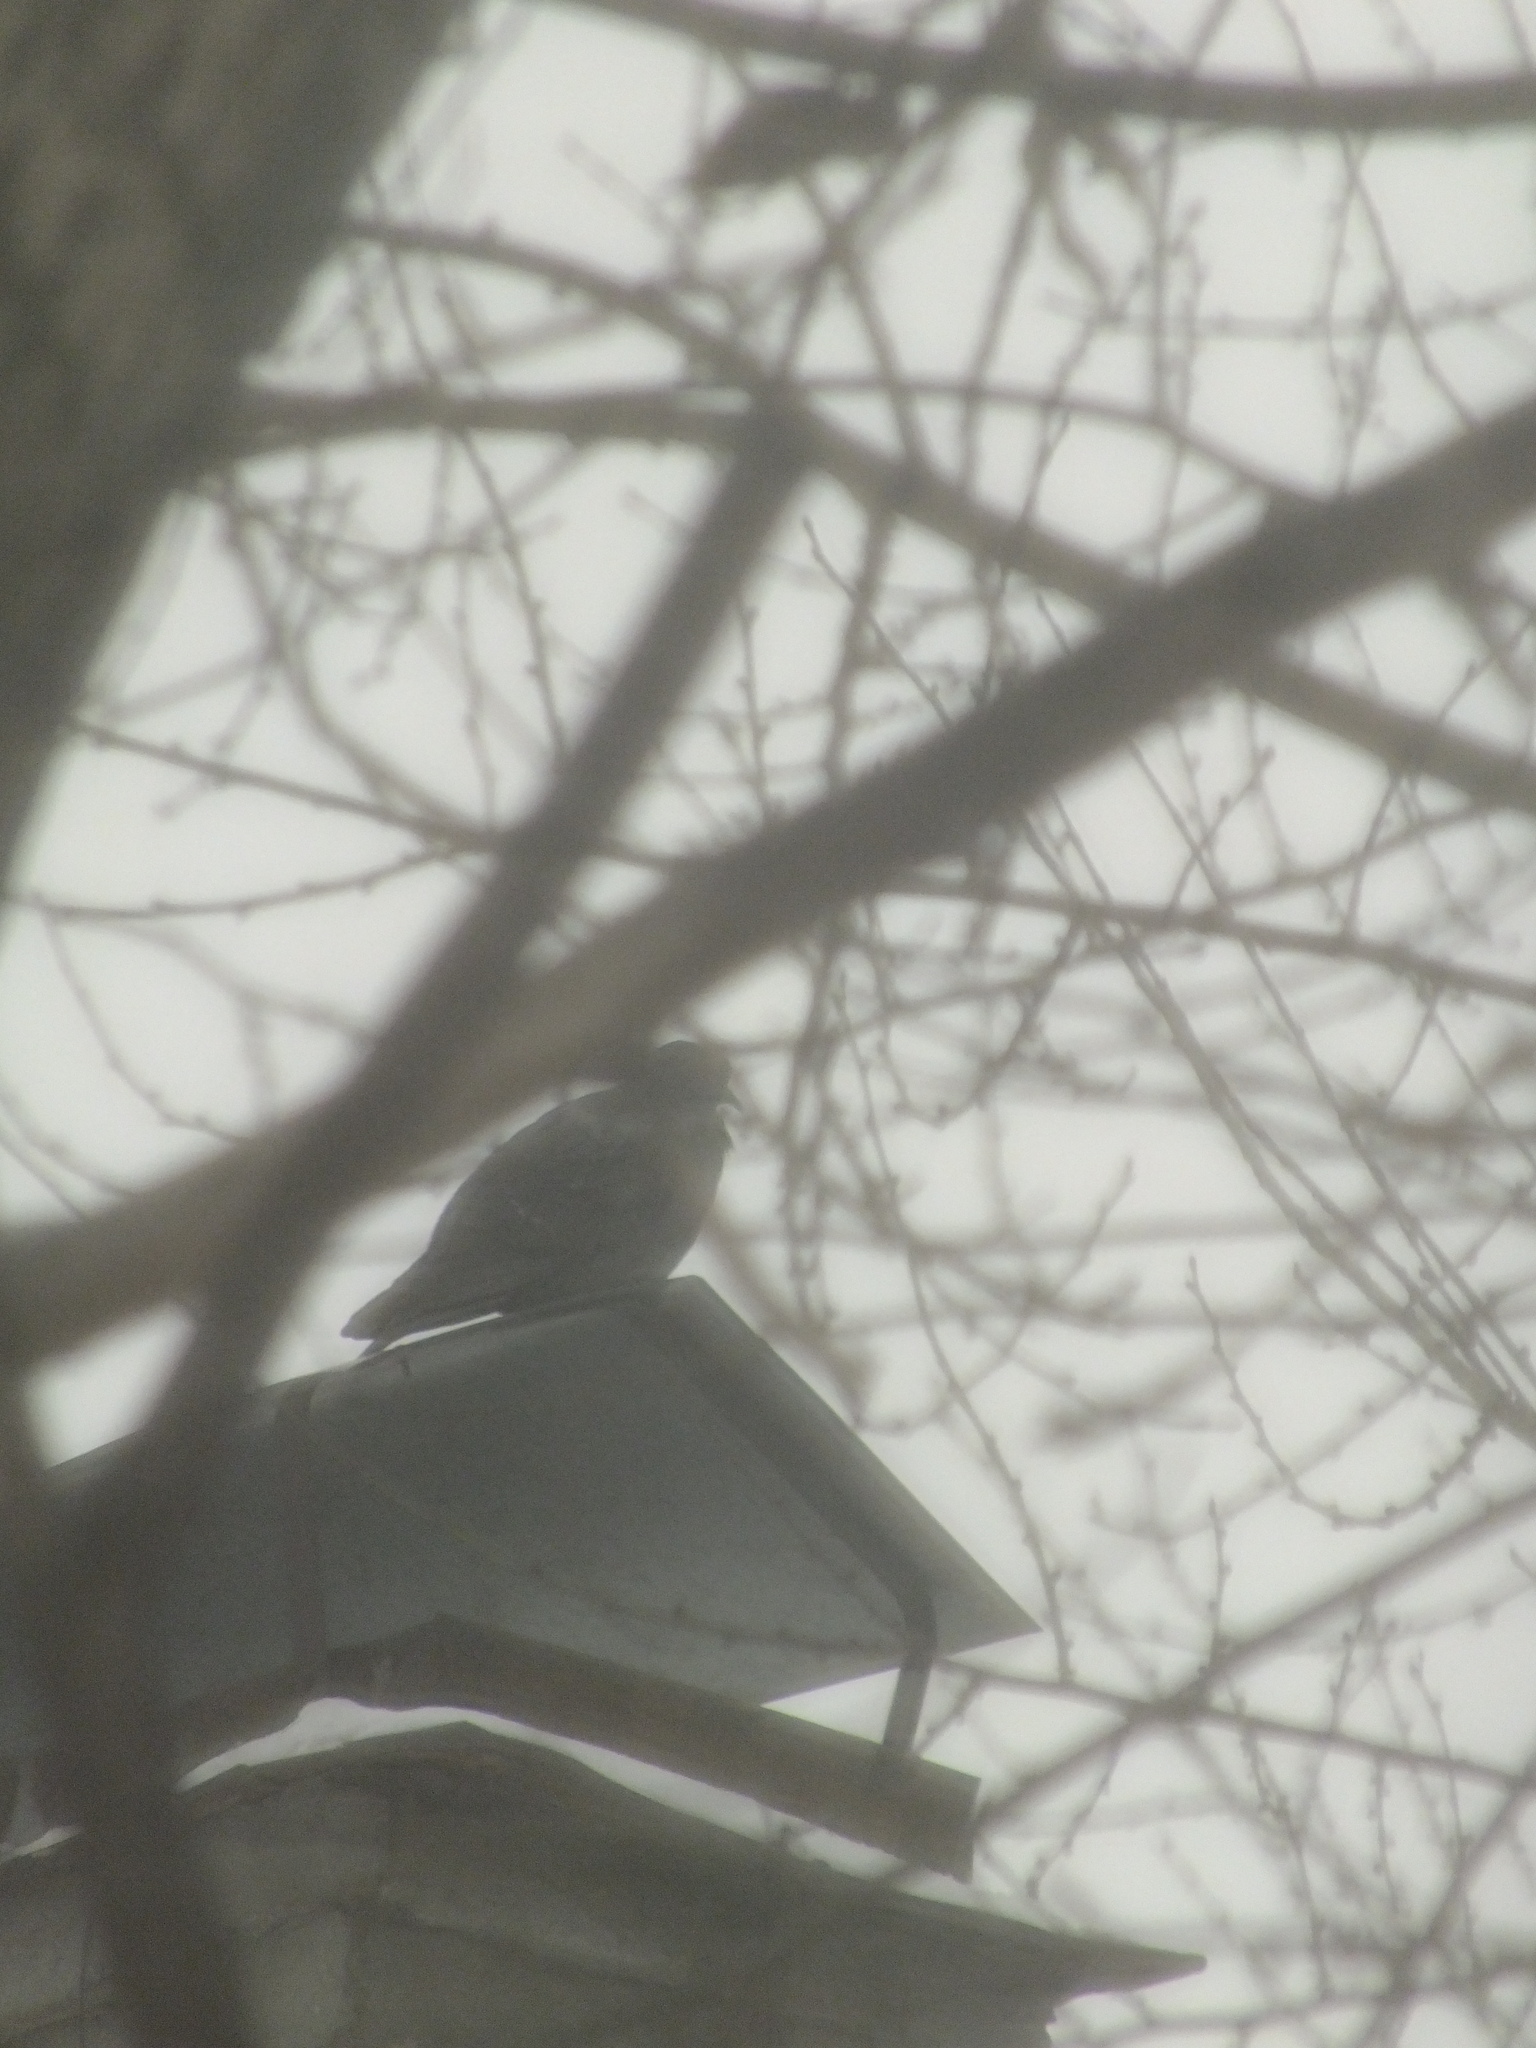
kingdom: Animalia
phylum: Chordata
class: Aves
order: Columbiformes
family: Columbidae
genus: Columba
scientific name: Columba livia
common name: Rock pigeon
